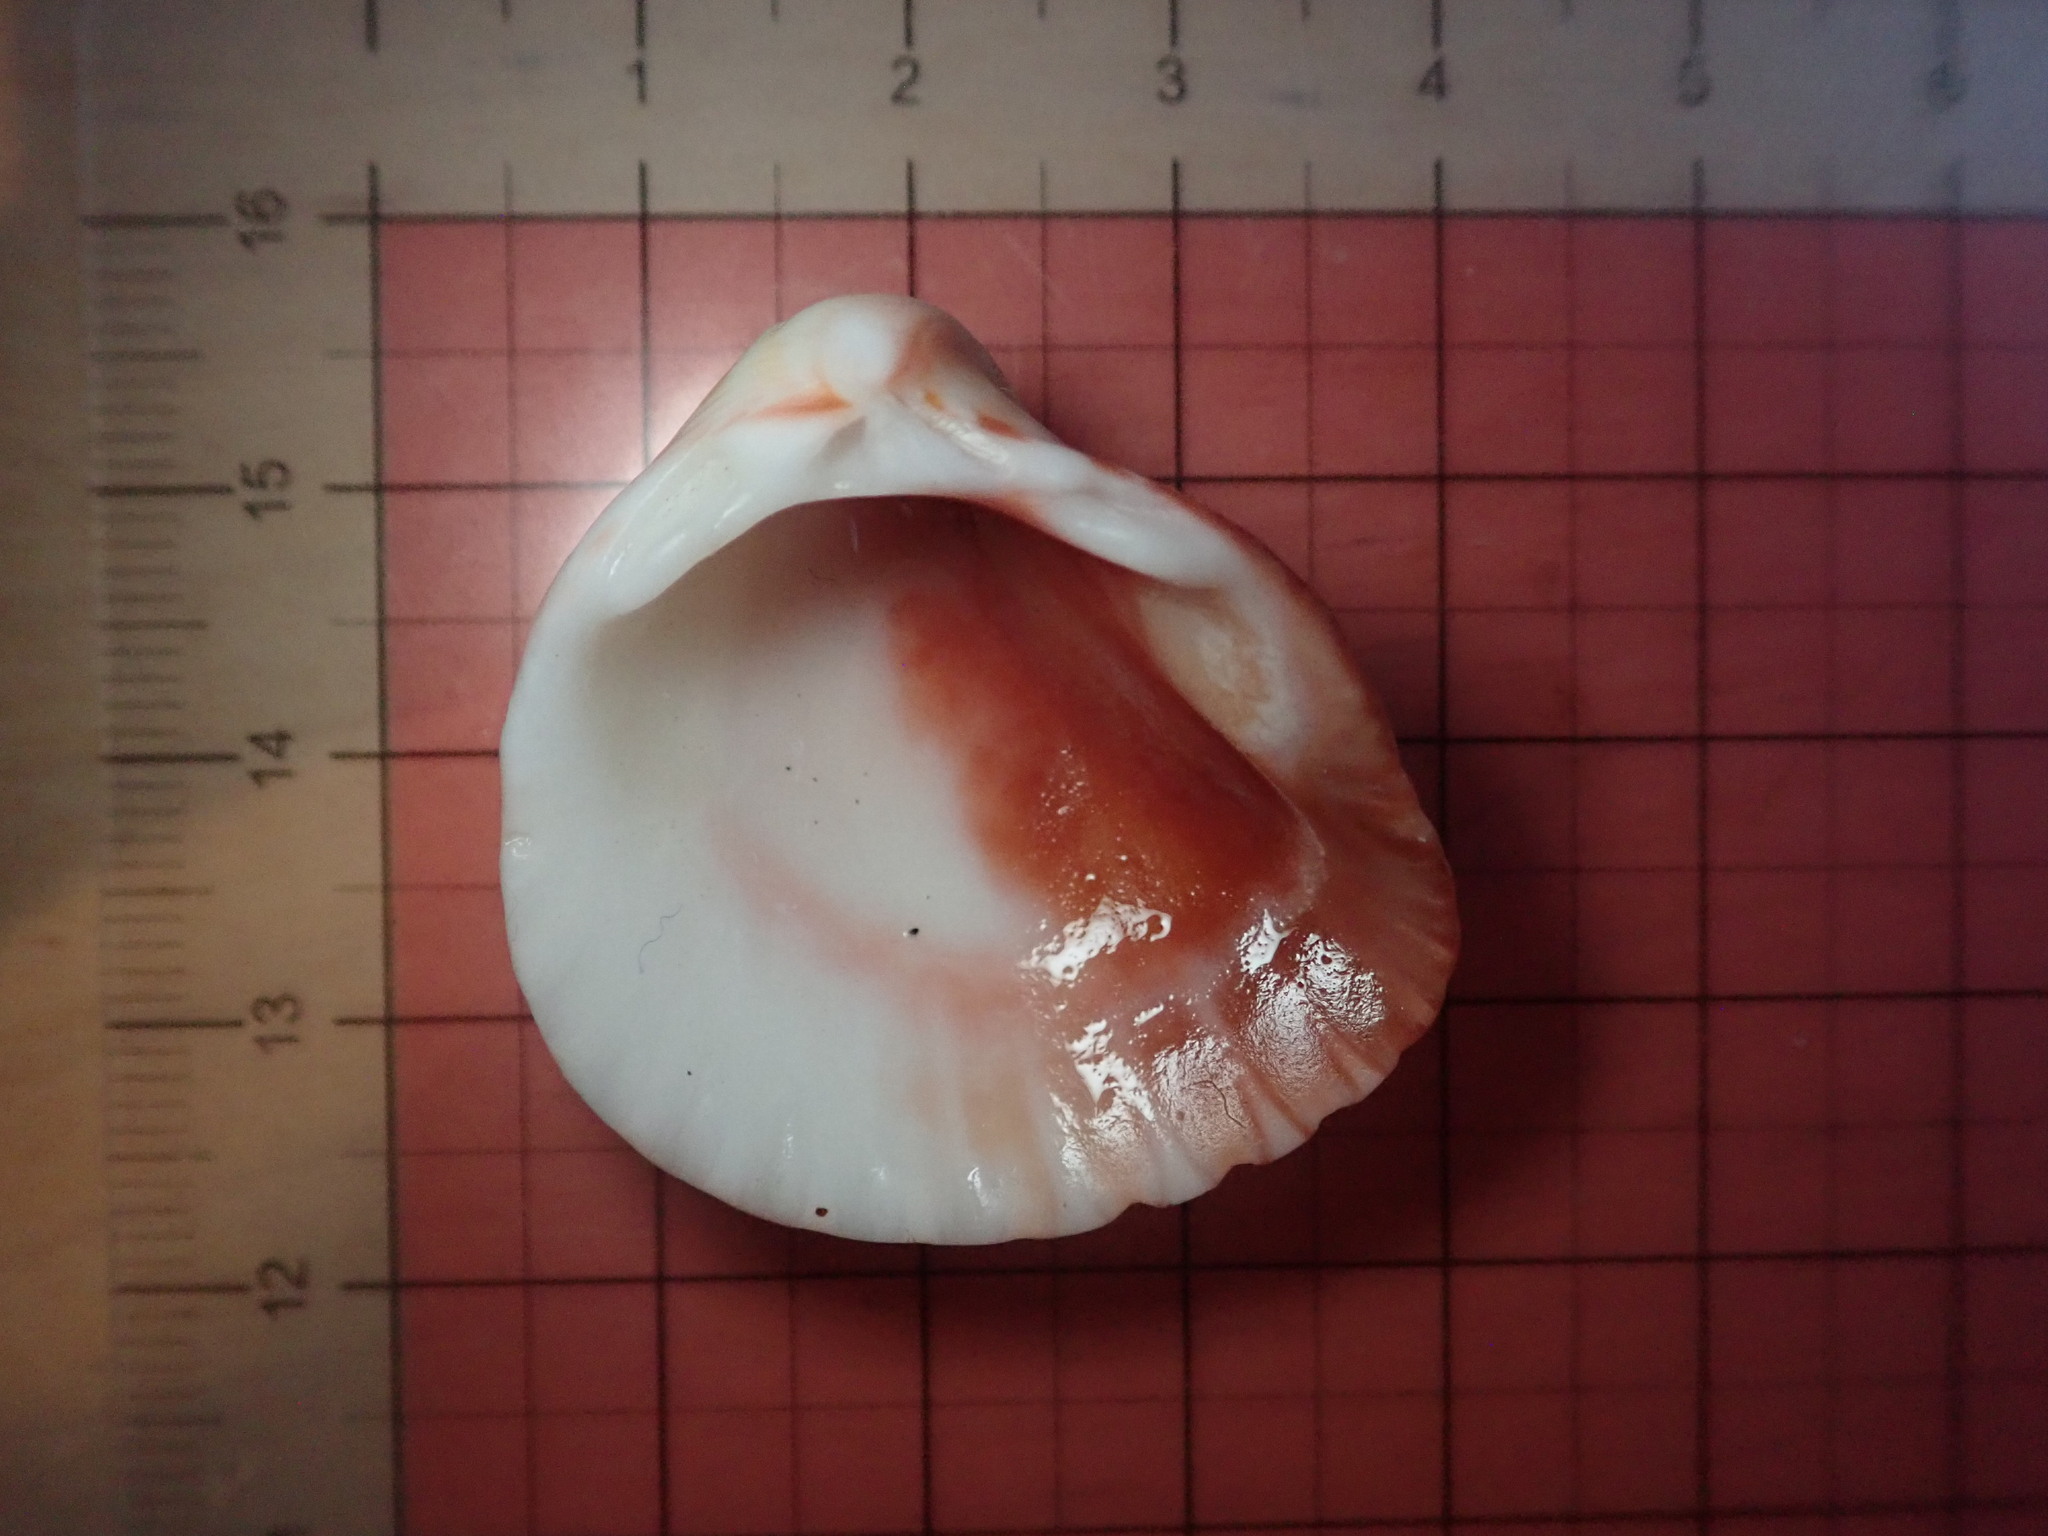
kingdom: Animalia
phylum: Mollusca
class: Bivalvia
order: Cardiida
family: Cardiidae
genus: Americardia
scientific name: Americardia biangulata
